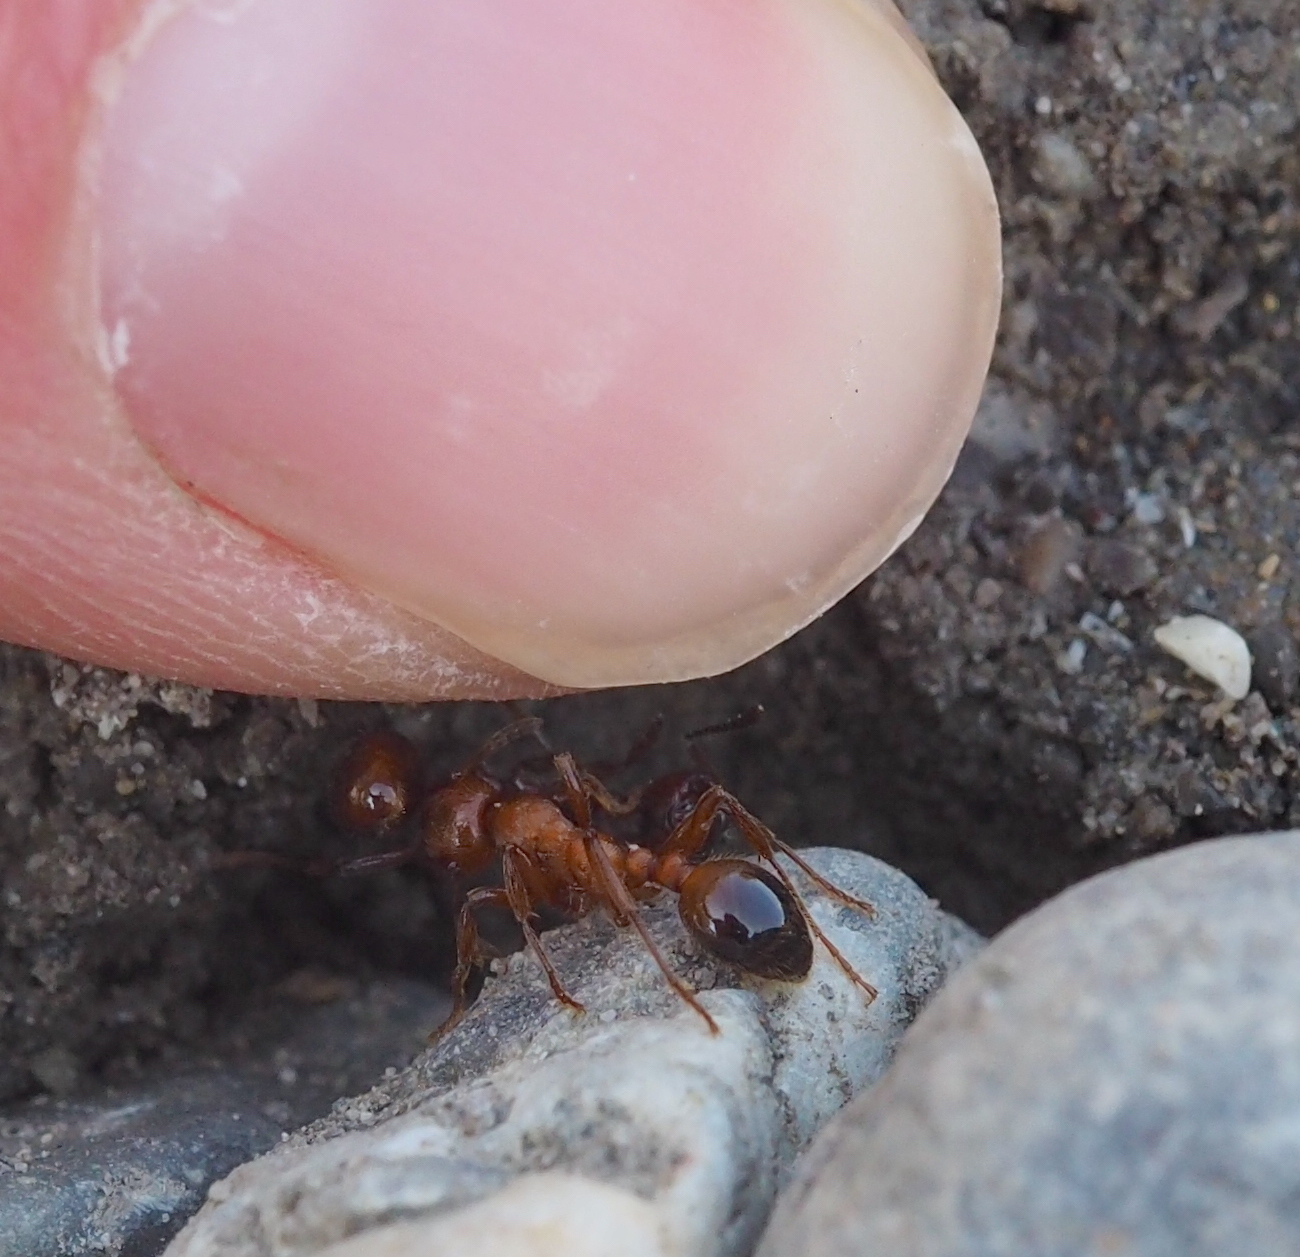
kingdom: Animalia
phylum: Arthropoda
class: Insecta
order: Hymenoptera
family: Formicidae
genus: Manica
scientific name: Manica rubida
